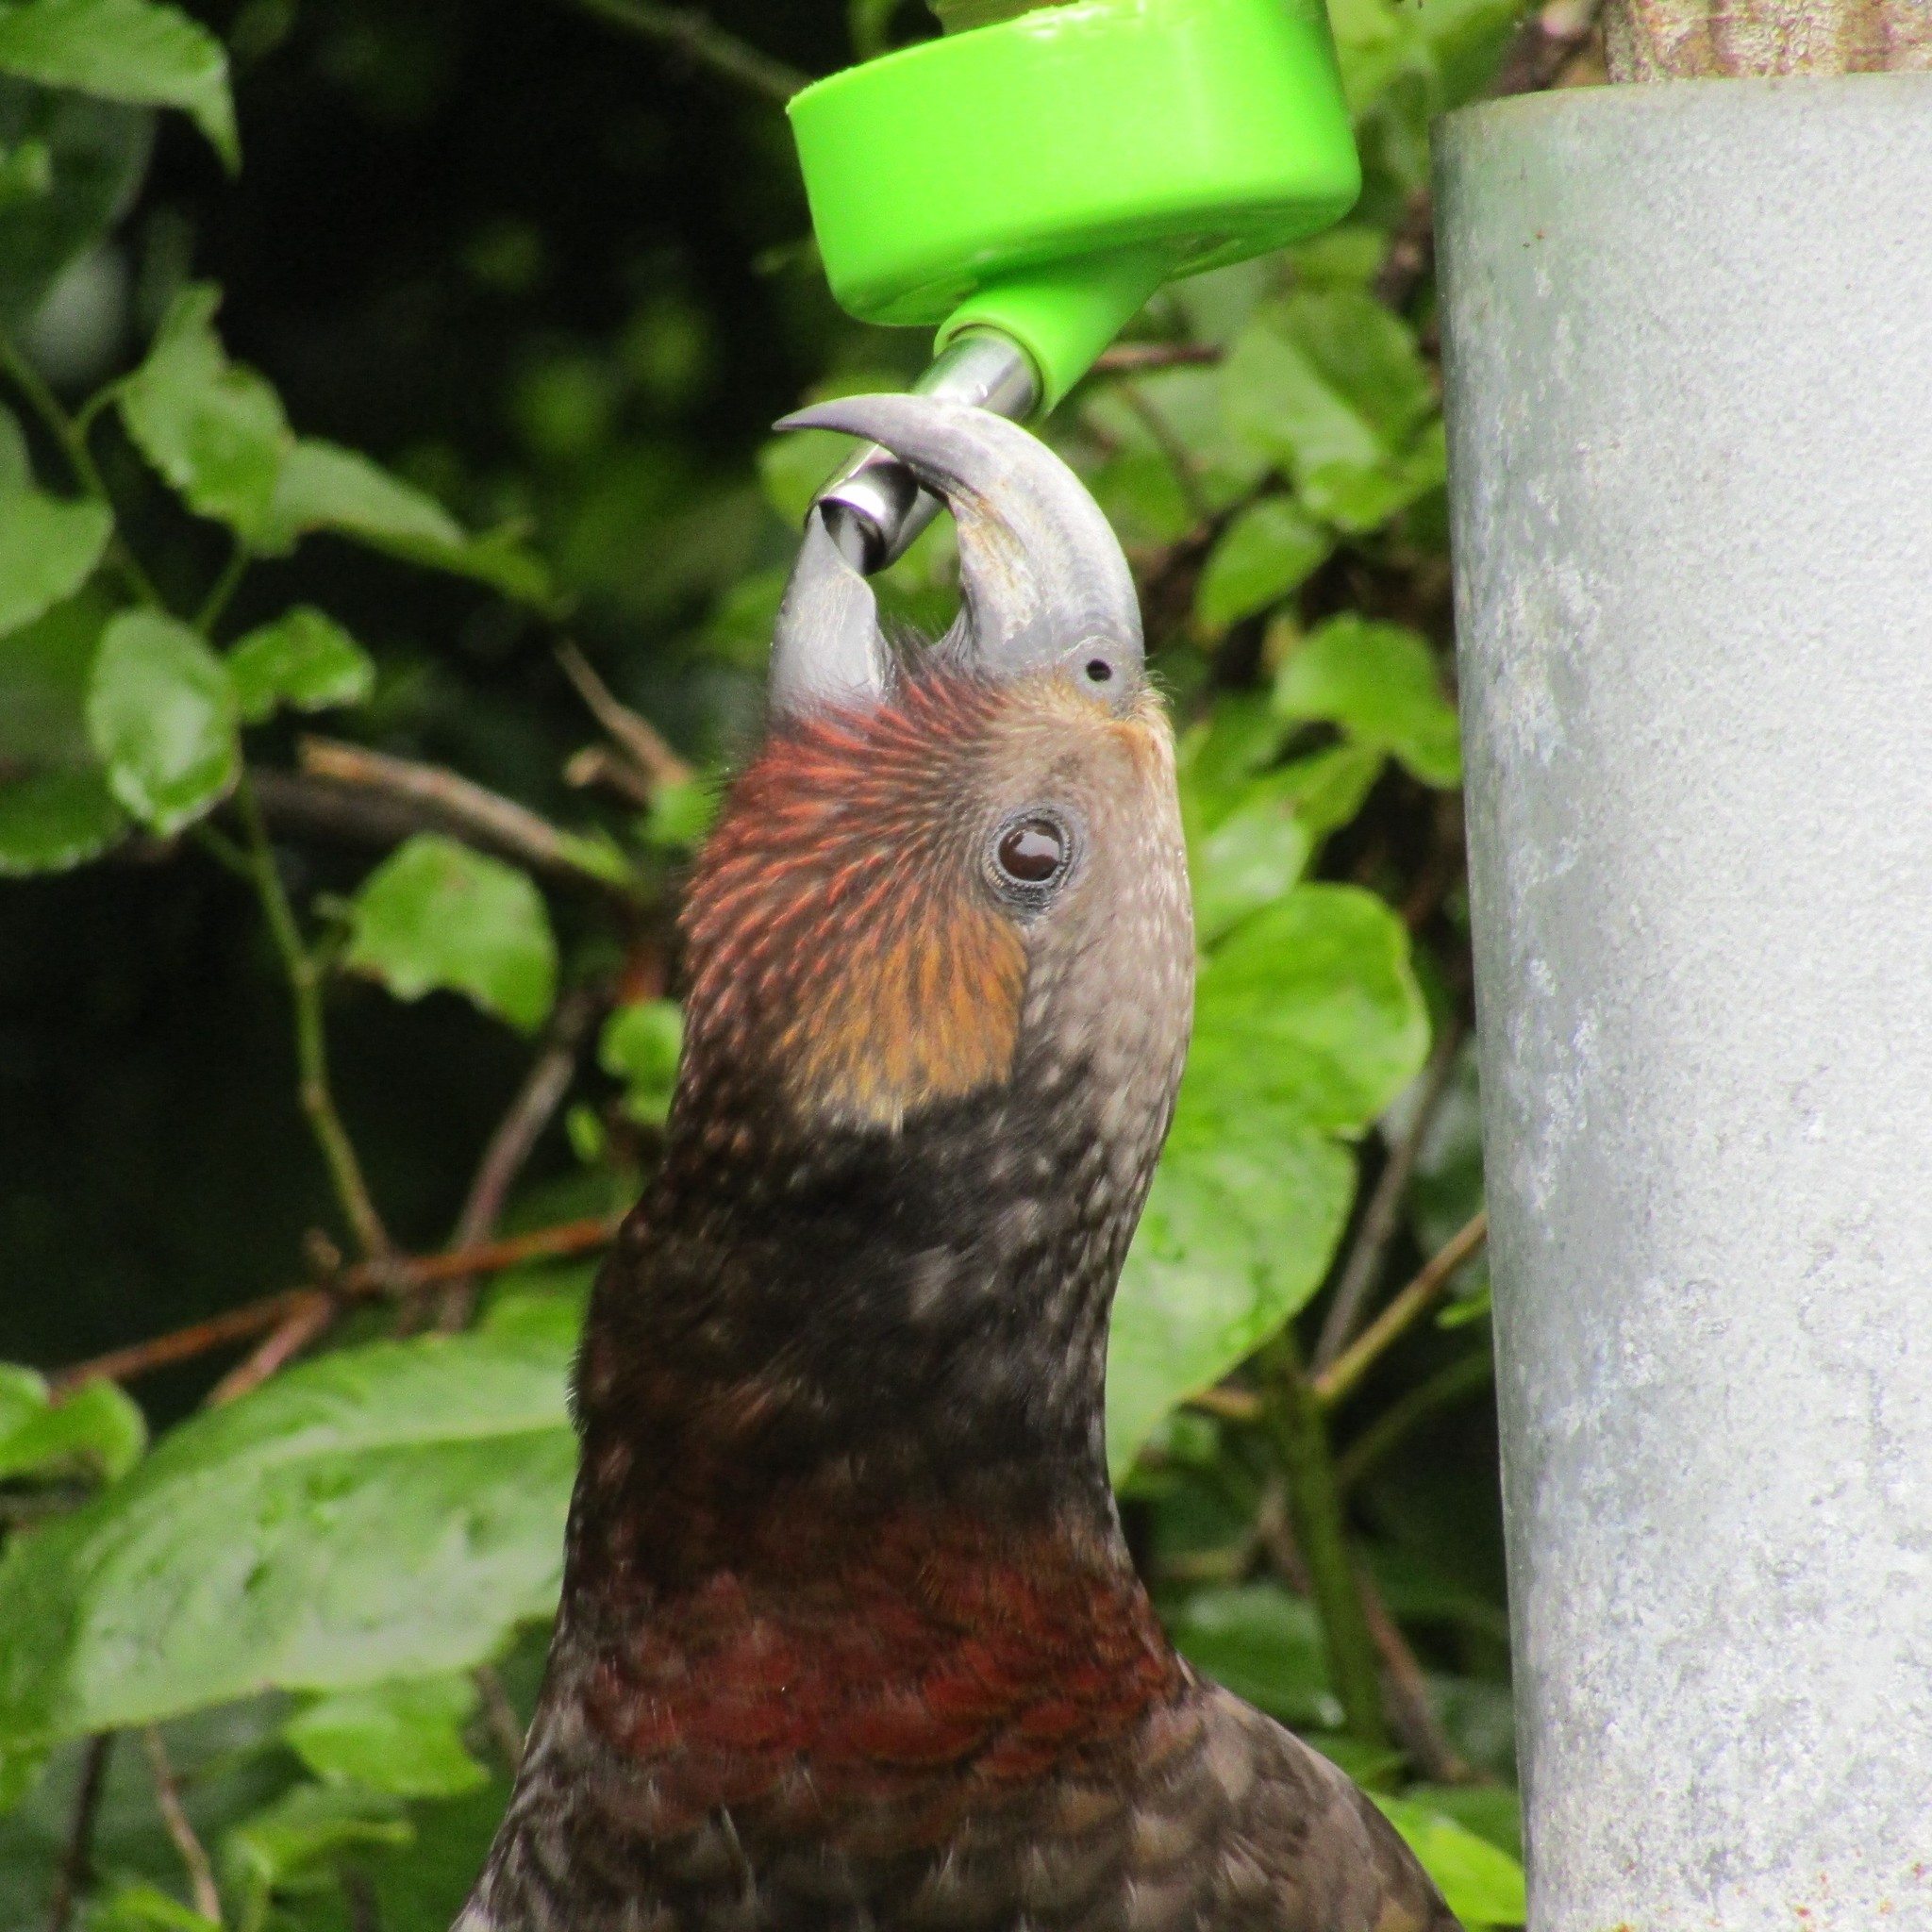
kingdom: Animalia
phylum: Chordata
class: Aves
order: Psittaciformes
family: Psittacidae
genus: Nestor
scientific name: Nestor meridionalis
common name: New zealand kaka
